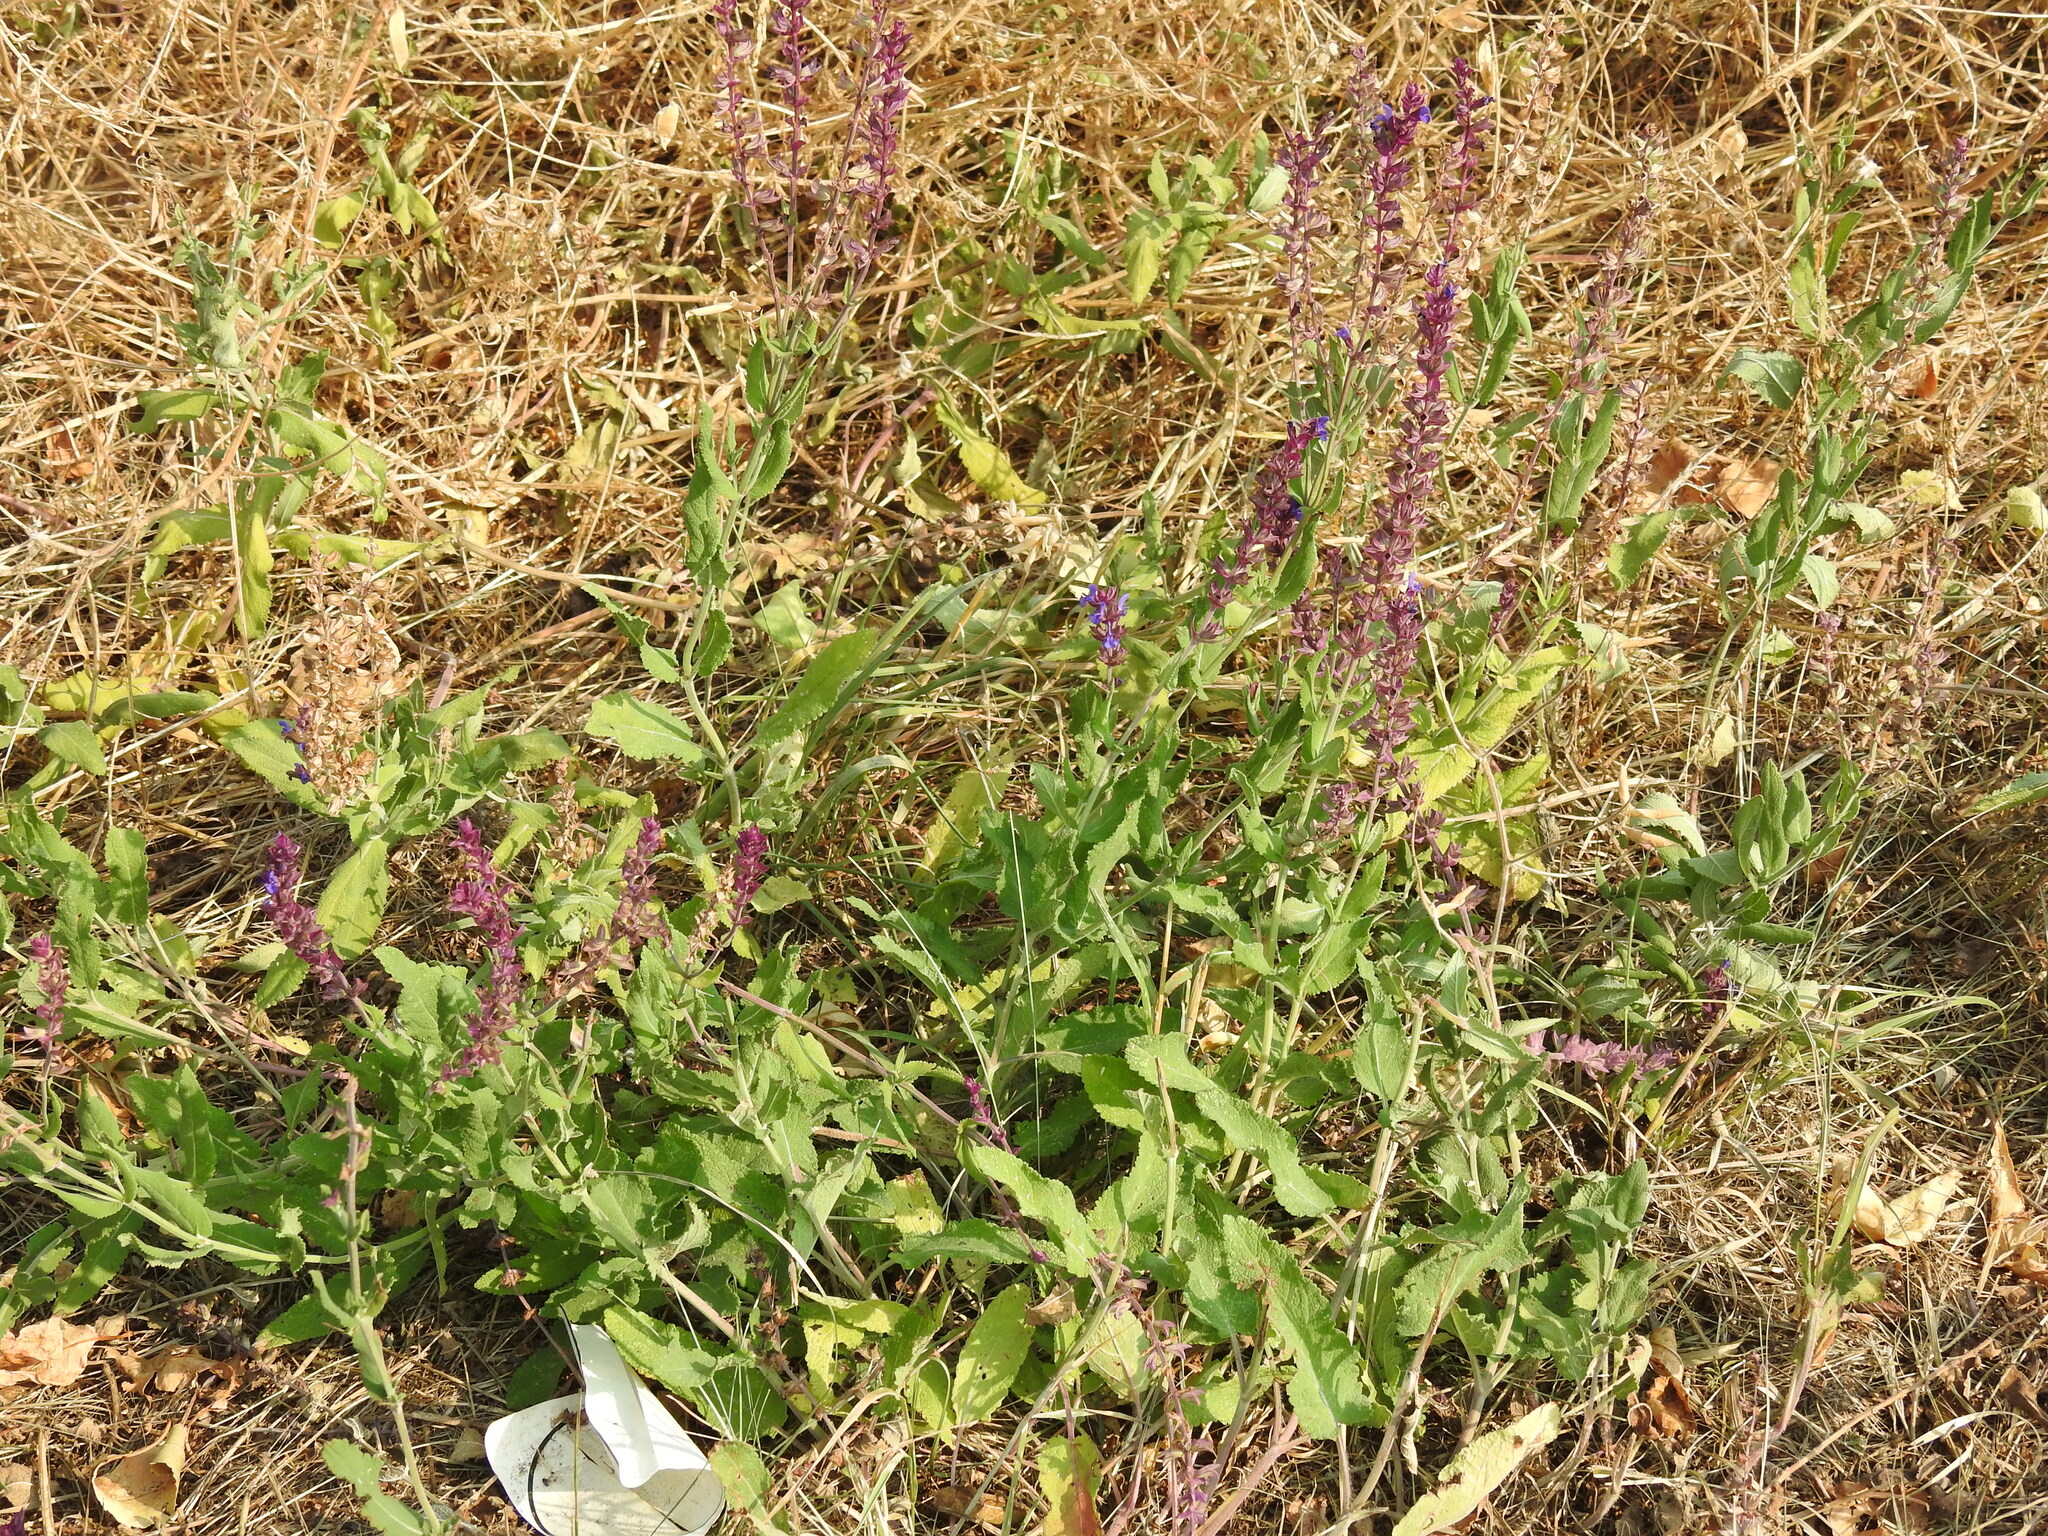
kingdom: Plantae
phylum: Tracheophyta
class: Magnoliopsida
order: Lamiales
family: Lamiaceae
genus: Salvia
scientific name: Salvia nemorosa
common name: Balkan clary
